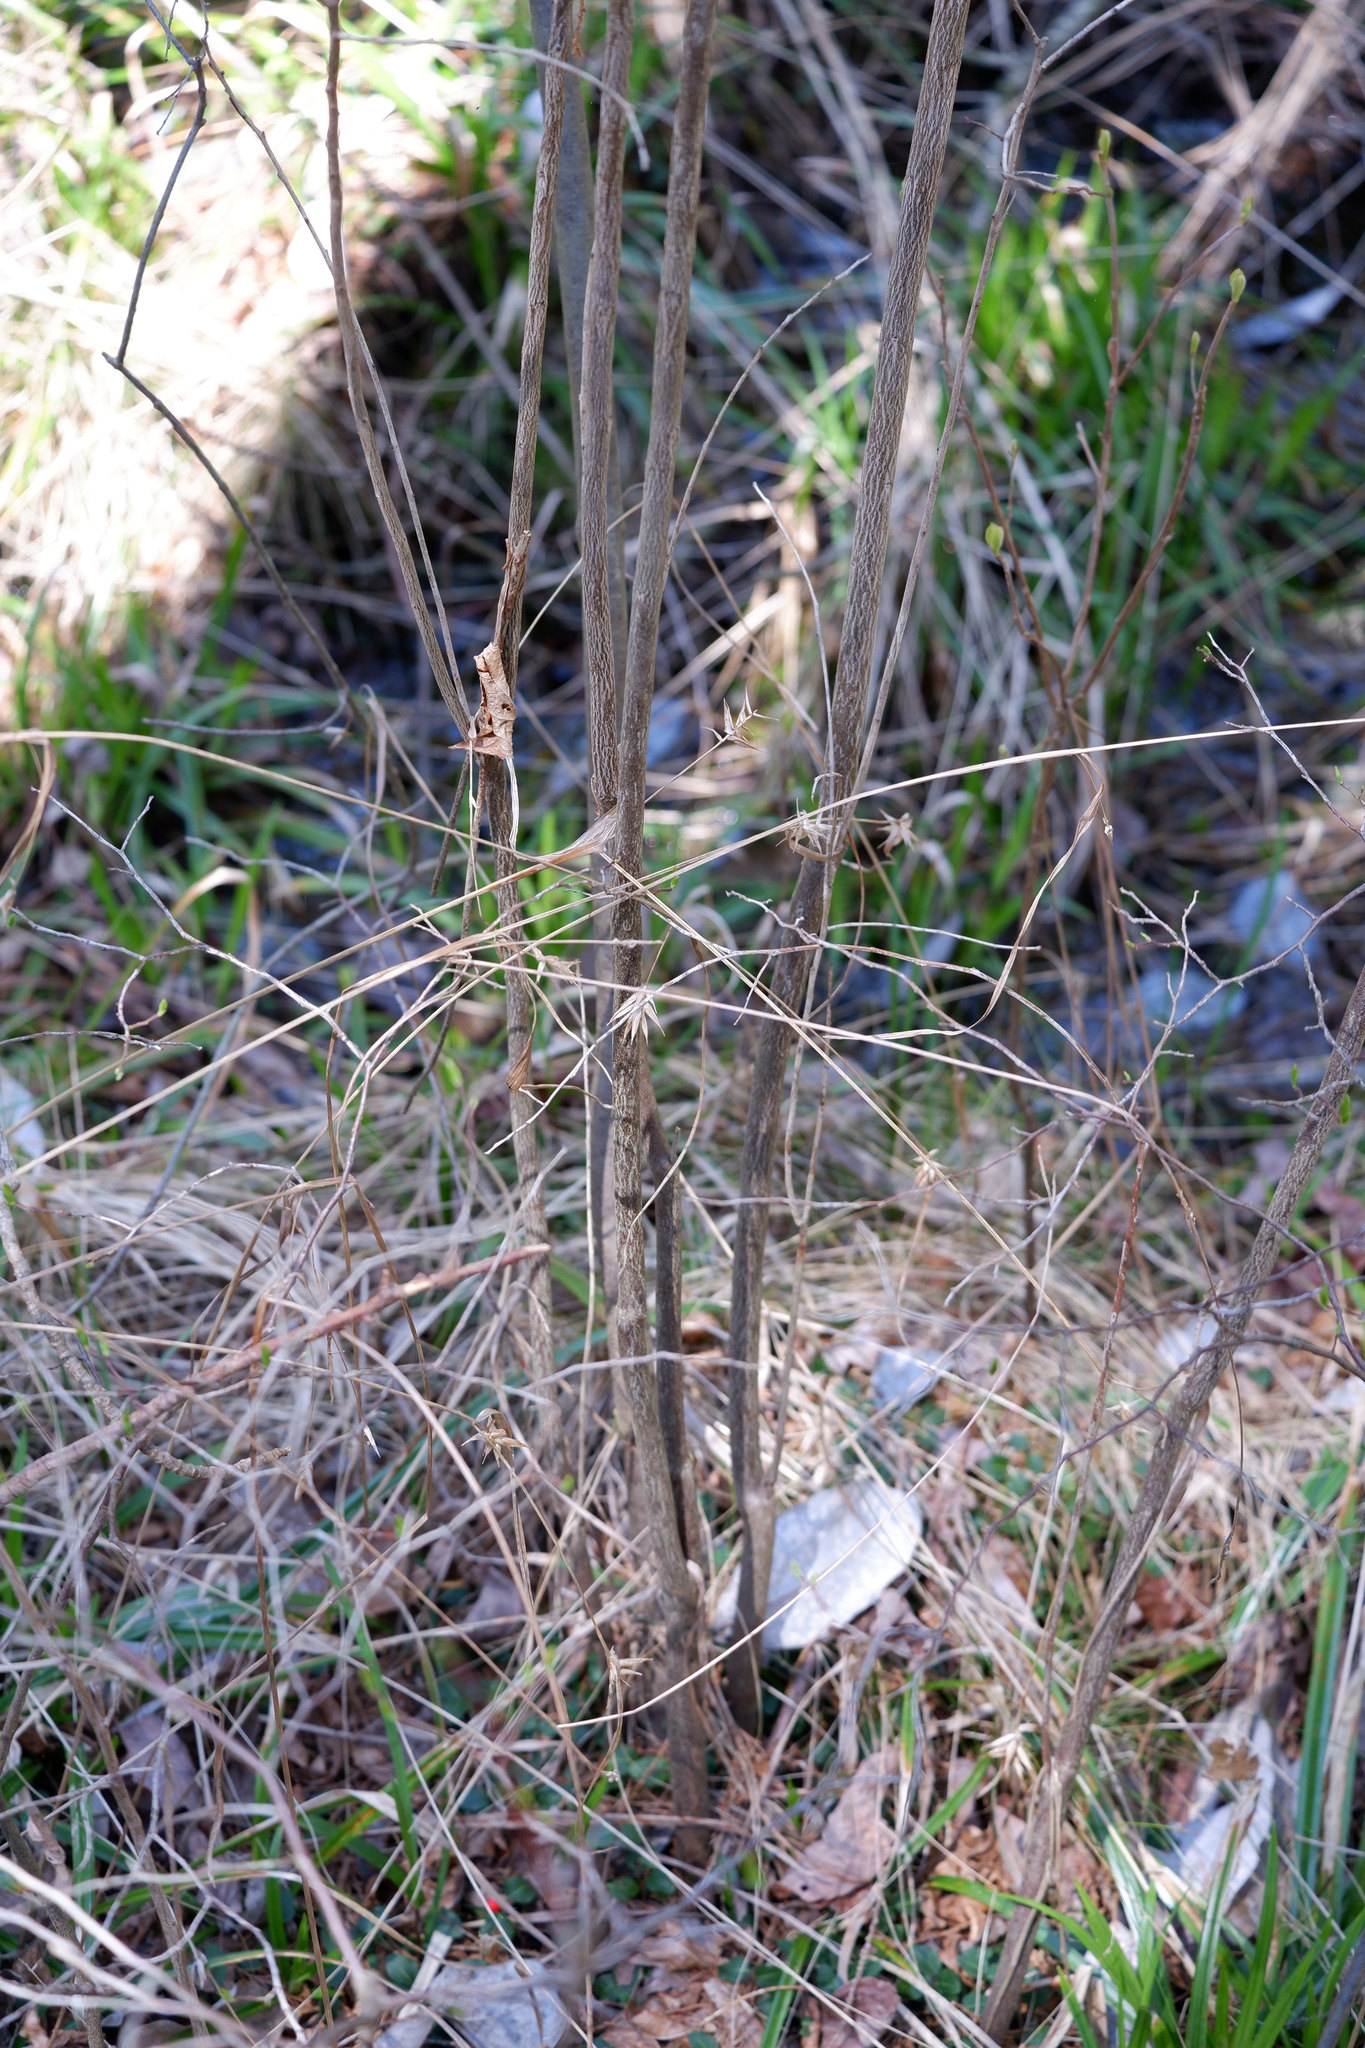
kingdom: Plantae
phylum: Tracheophyta
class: Liliopsida
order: Poales
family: Cyperaceae
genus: Carex
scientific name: Carex folliculata
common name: Northern long sedge
